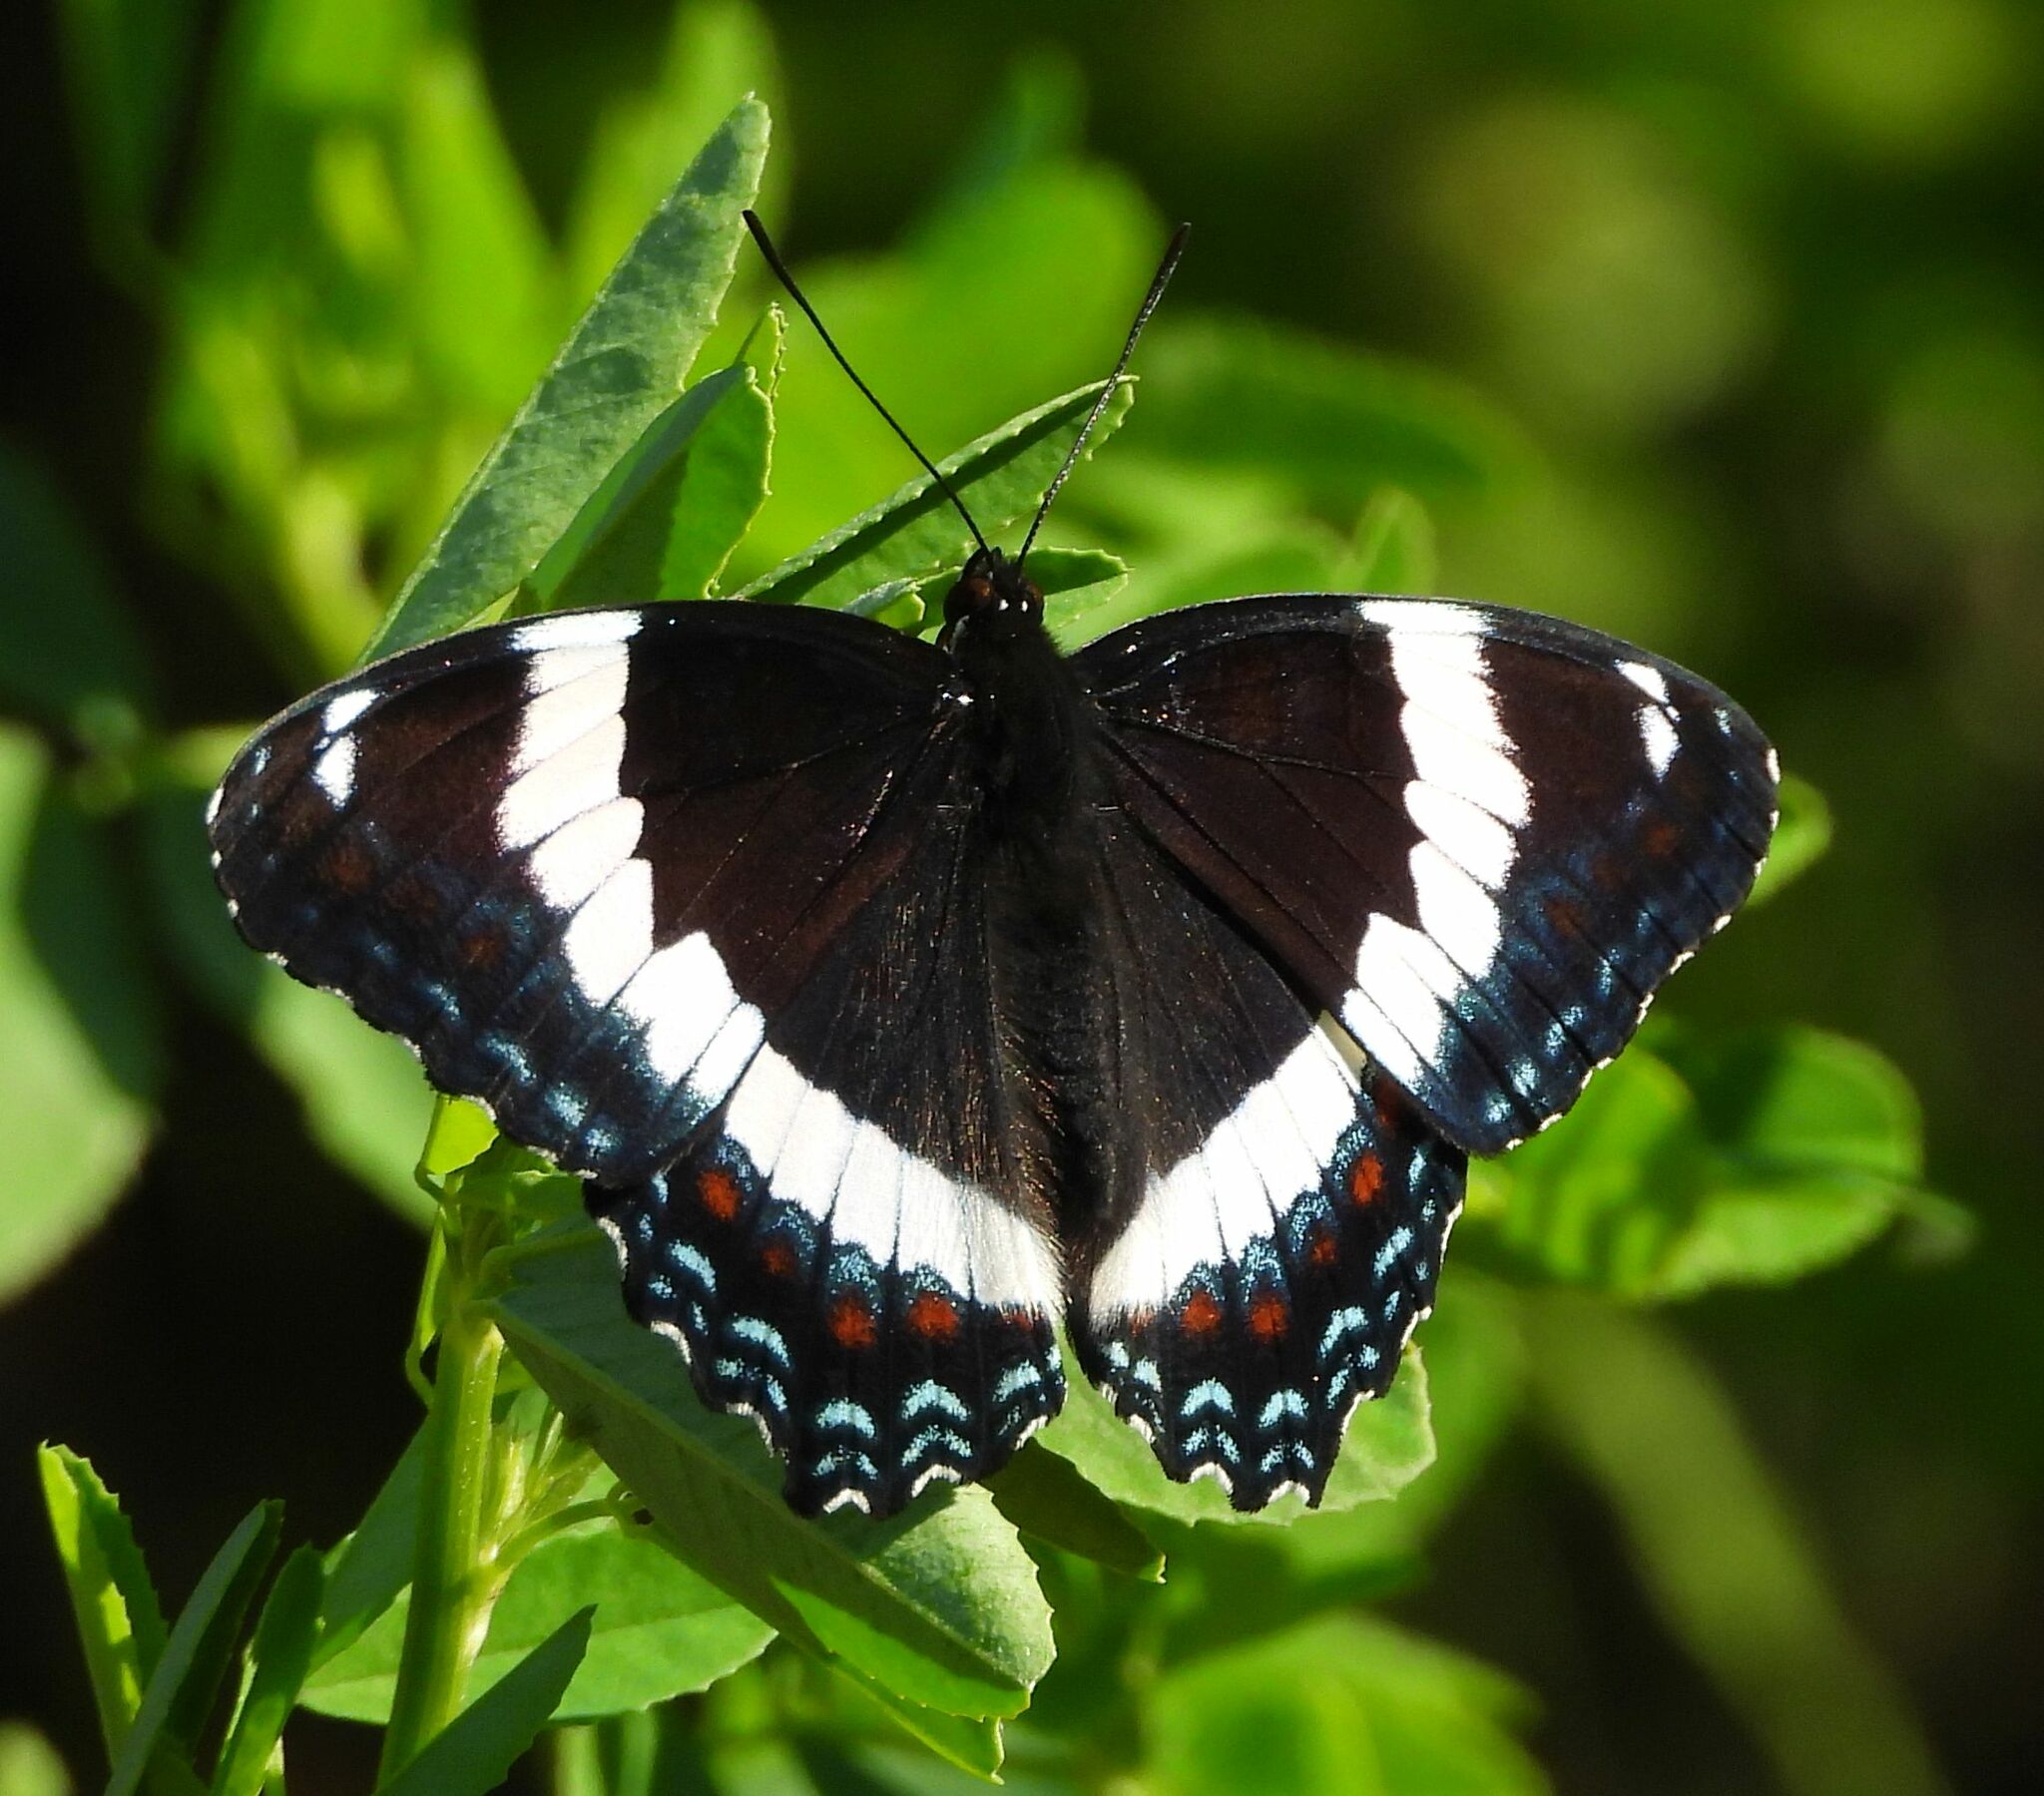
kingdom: Animalia
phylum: Arthropoda
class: Insecta
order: Lepidoptera
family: Nymphalidae
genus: Limenitis
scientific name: Limenitis arthemis
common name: Red-spotted admiral
